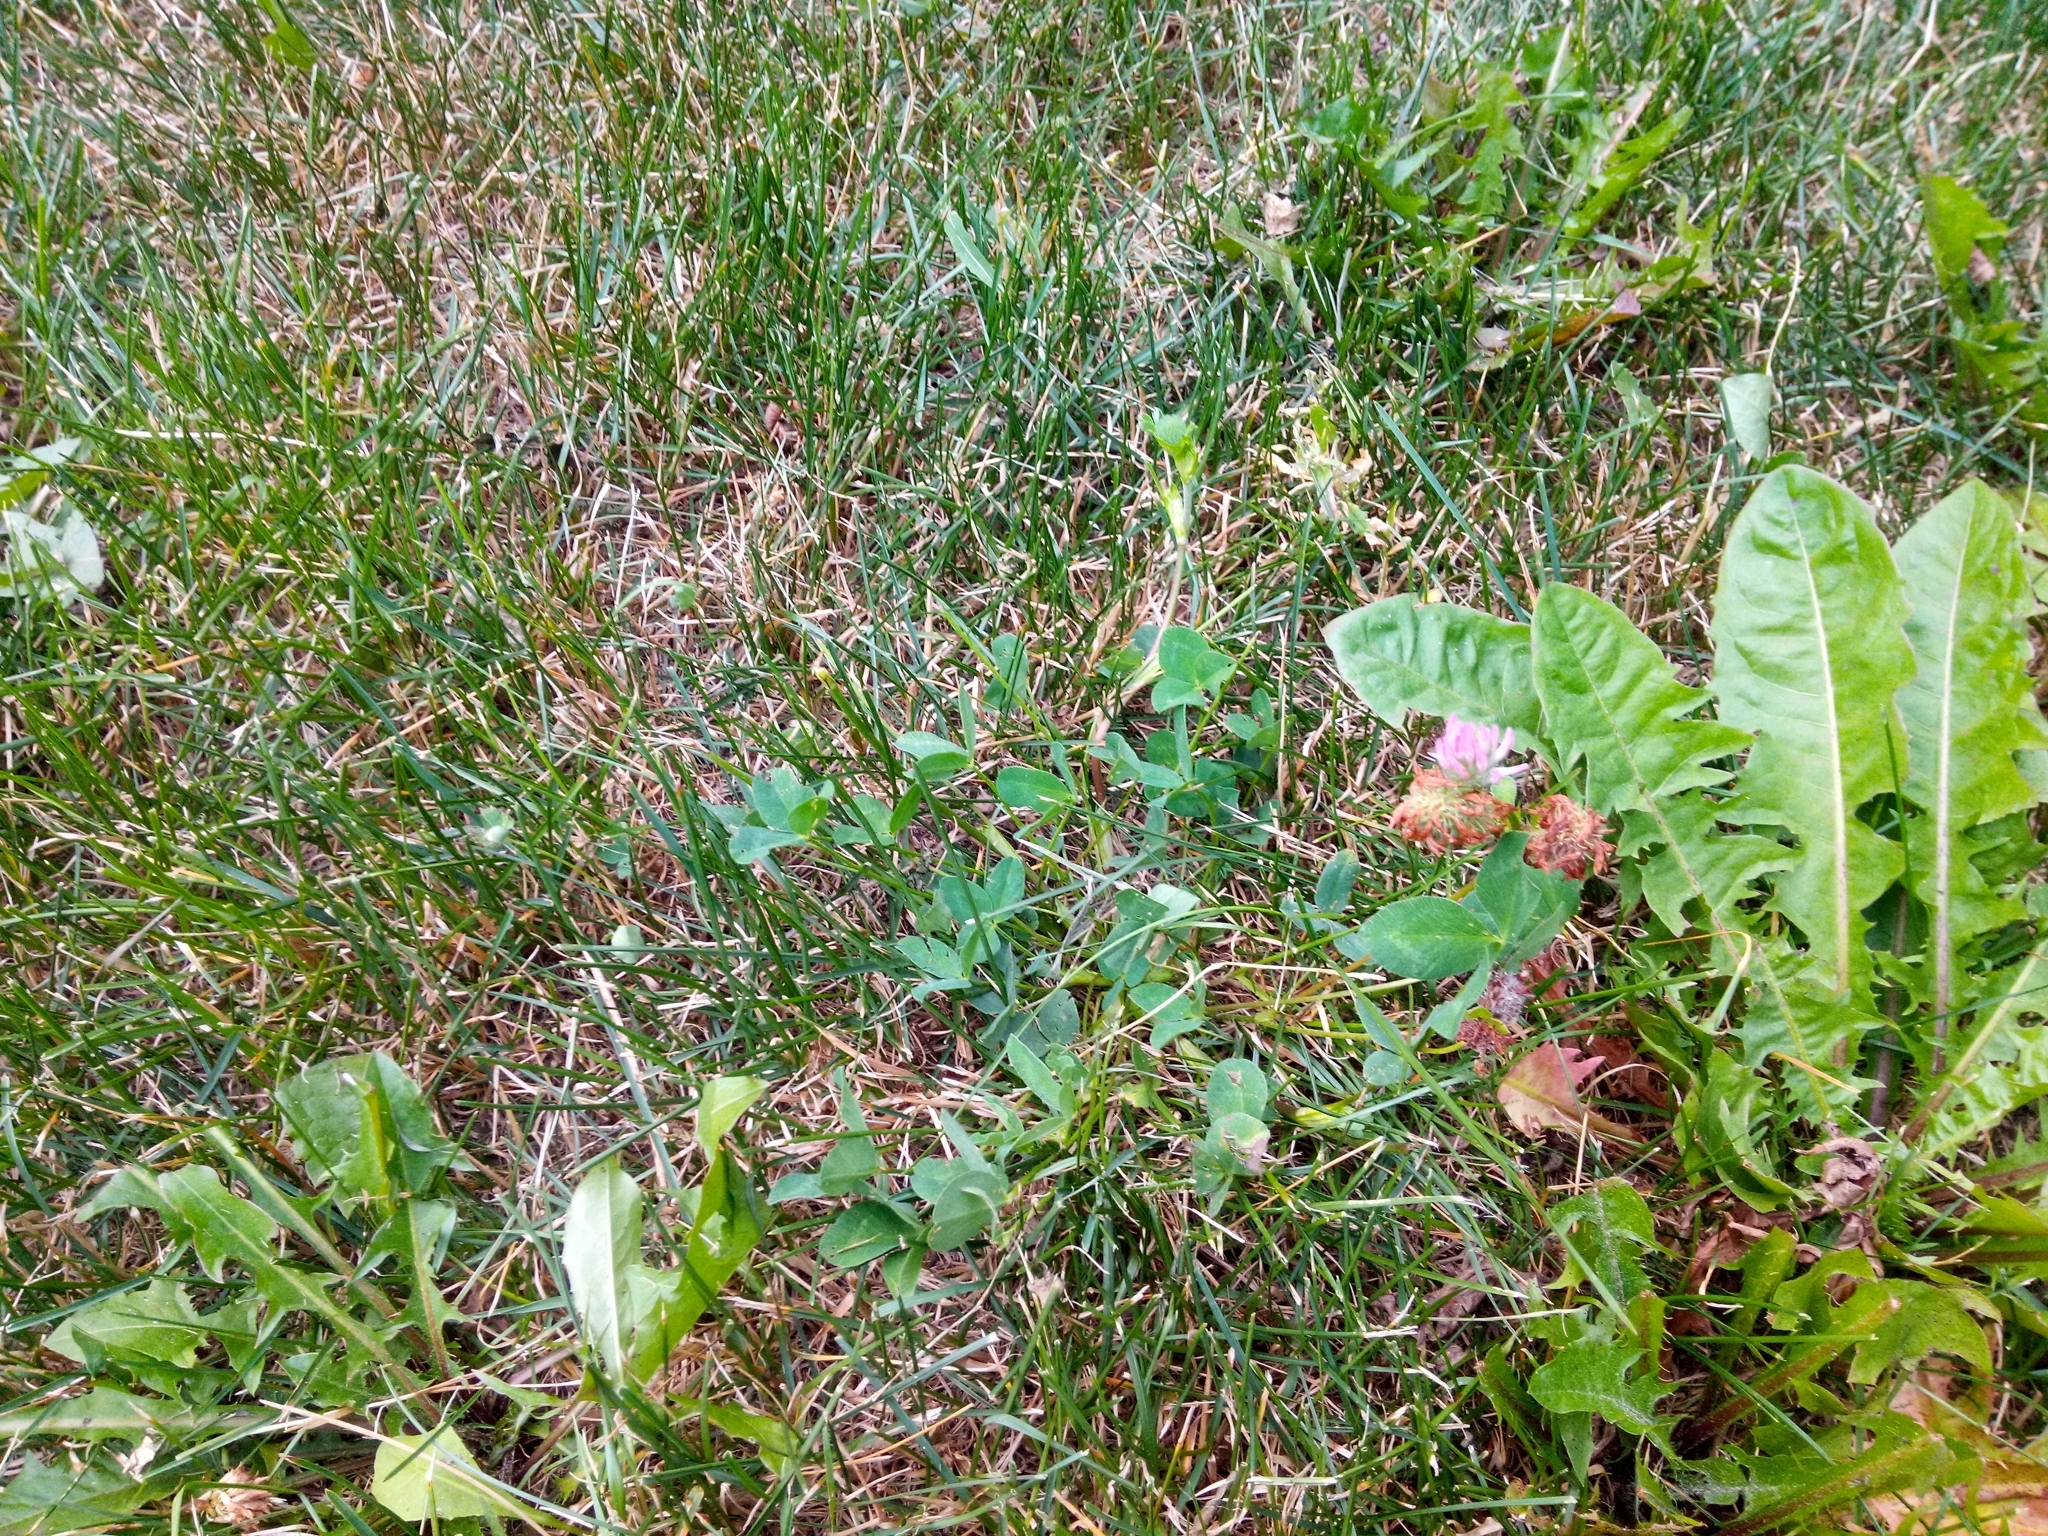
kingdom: Plantae
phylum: Tracheophyta
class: Magnoliopsida
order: Fabales
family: Fabaceae
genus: Trifolium
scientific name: Trifolium pratense
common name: Red clover
